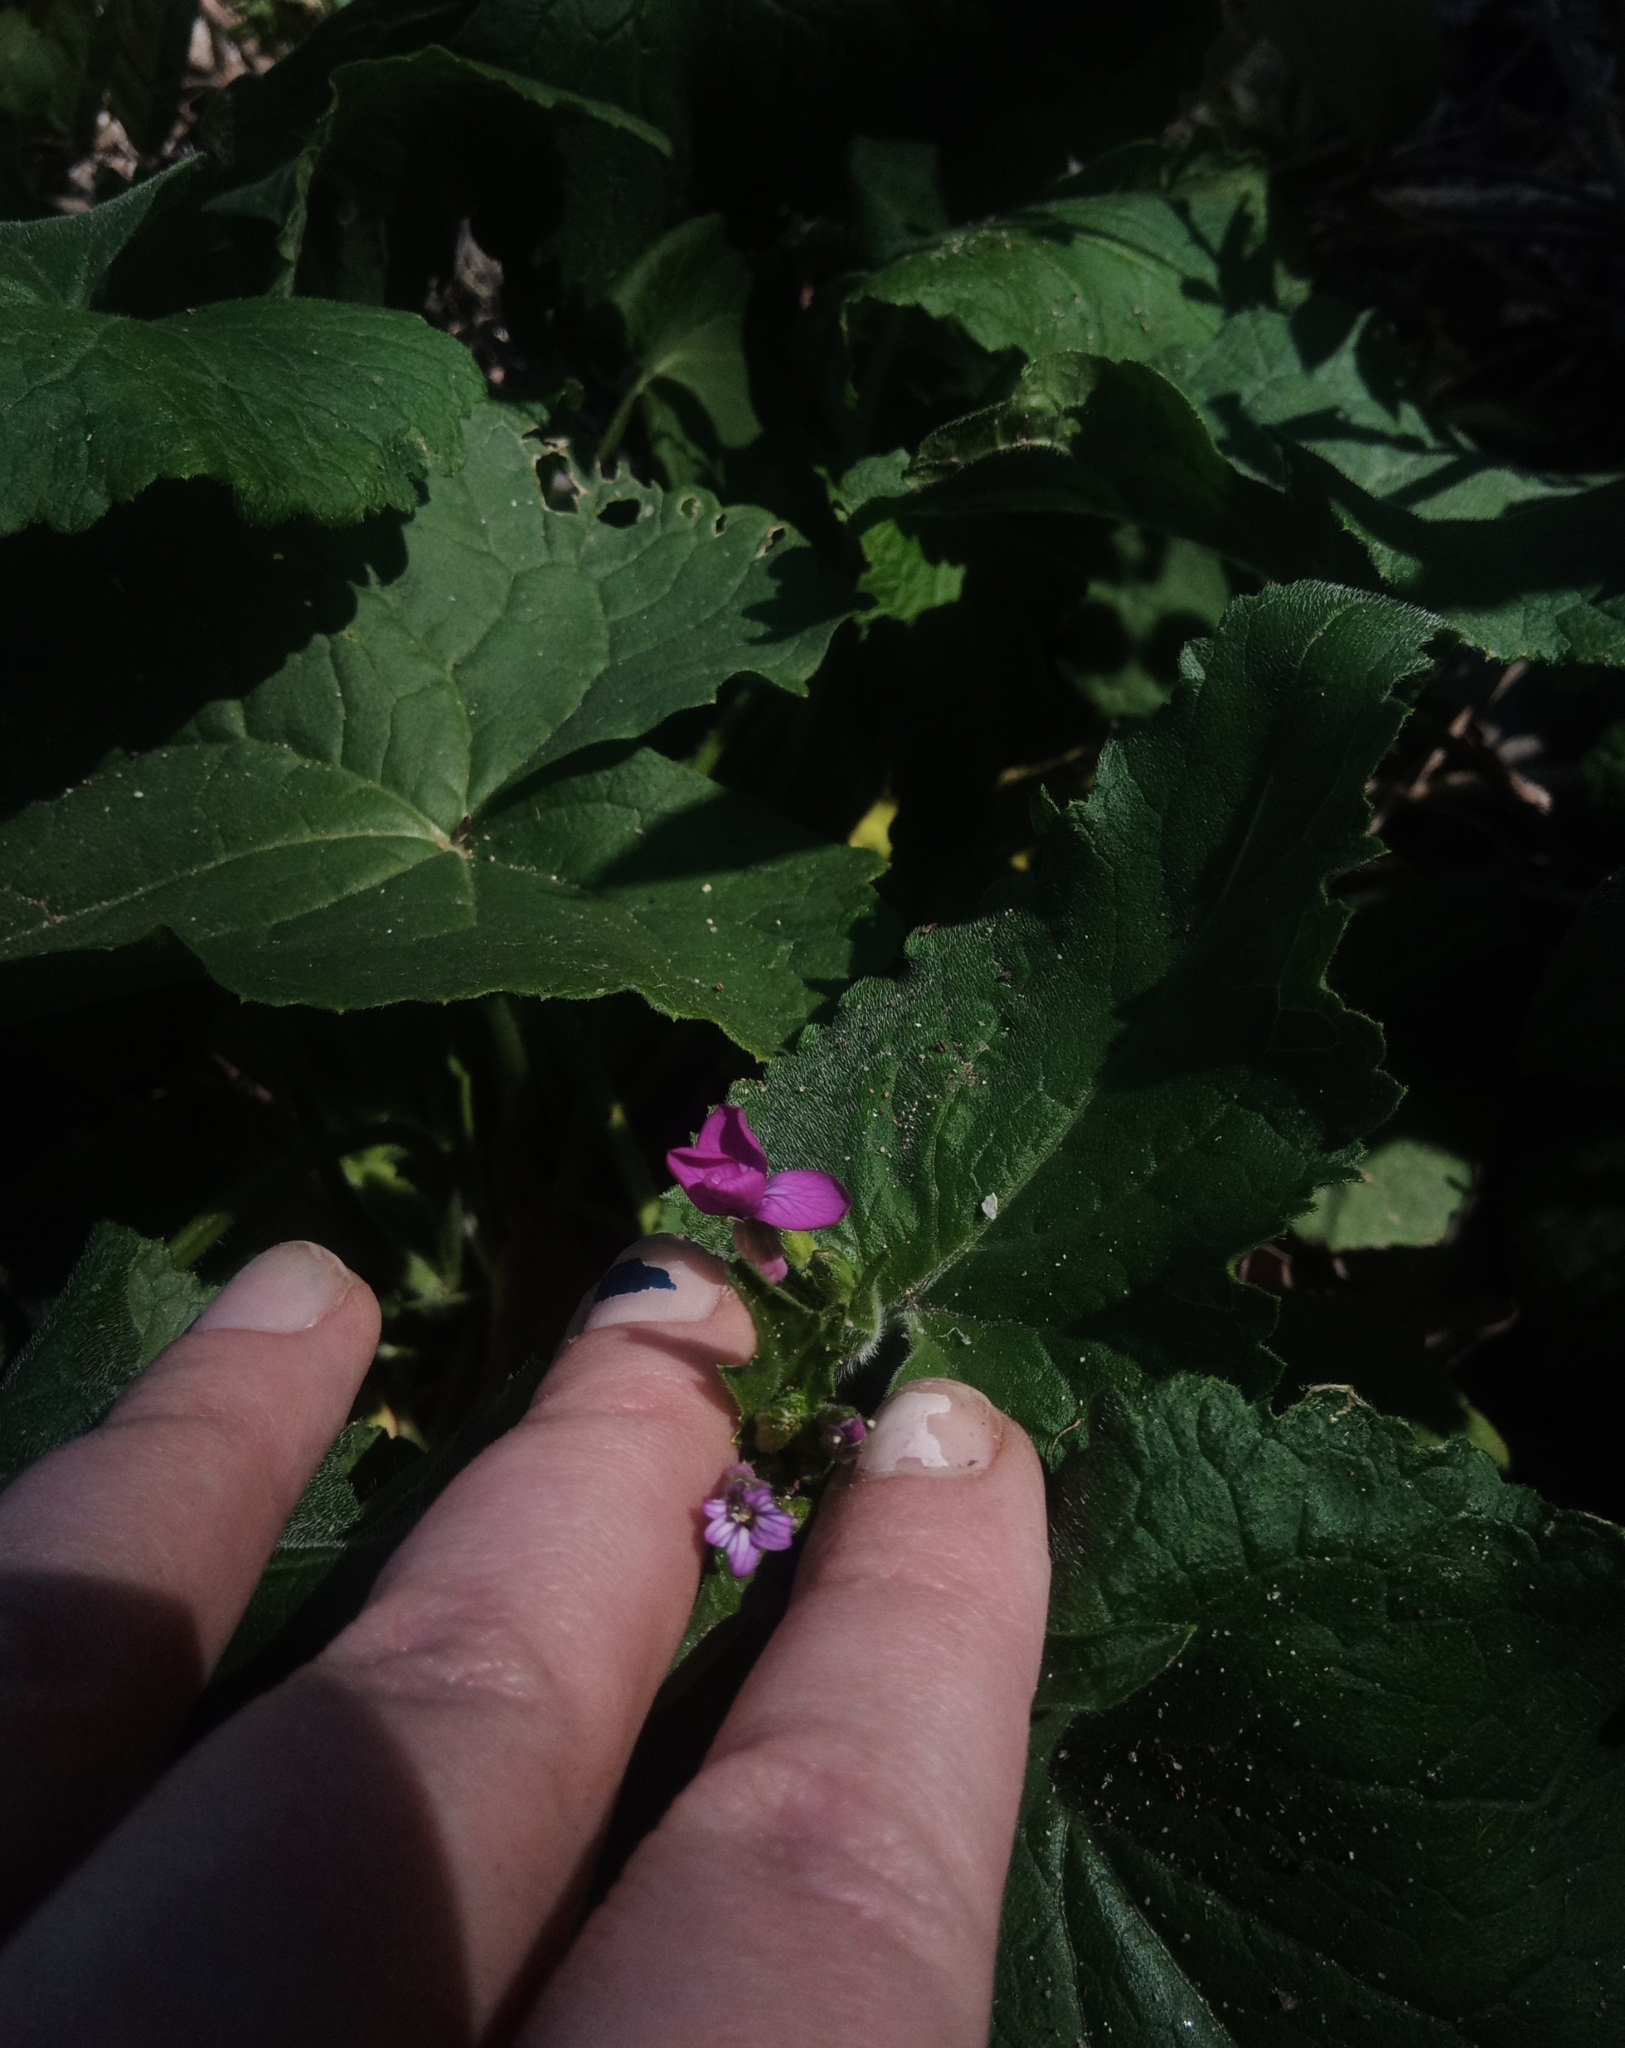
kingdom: Plantae
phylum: Tracheophyta
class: Magnoliopsida
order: Brassicales
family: Brassicaceae
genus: Lunaria
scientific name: Lunaria annua
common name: Honesty
